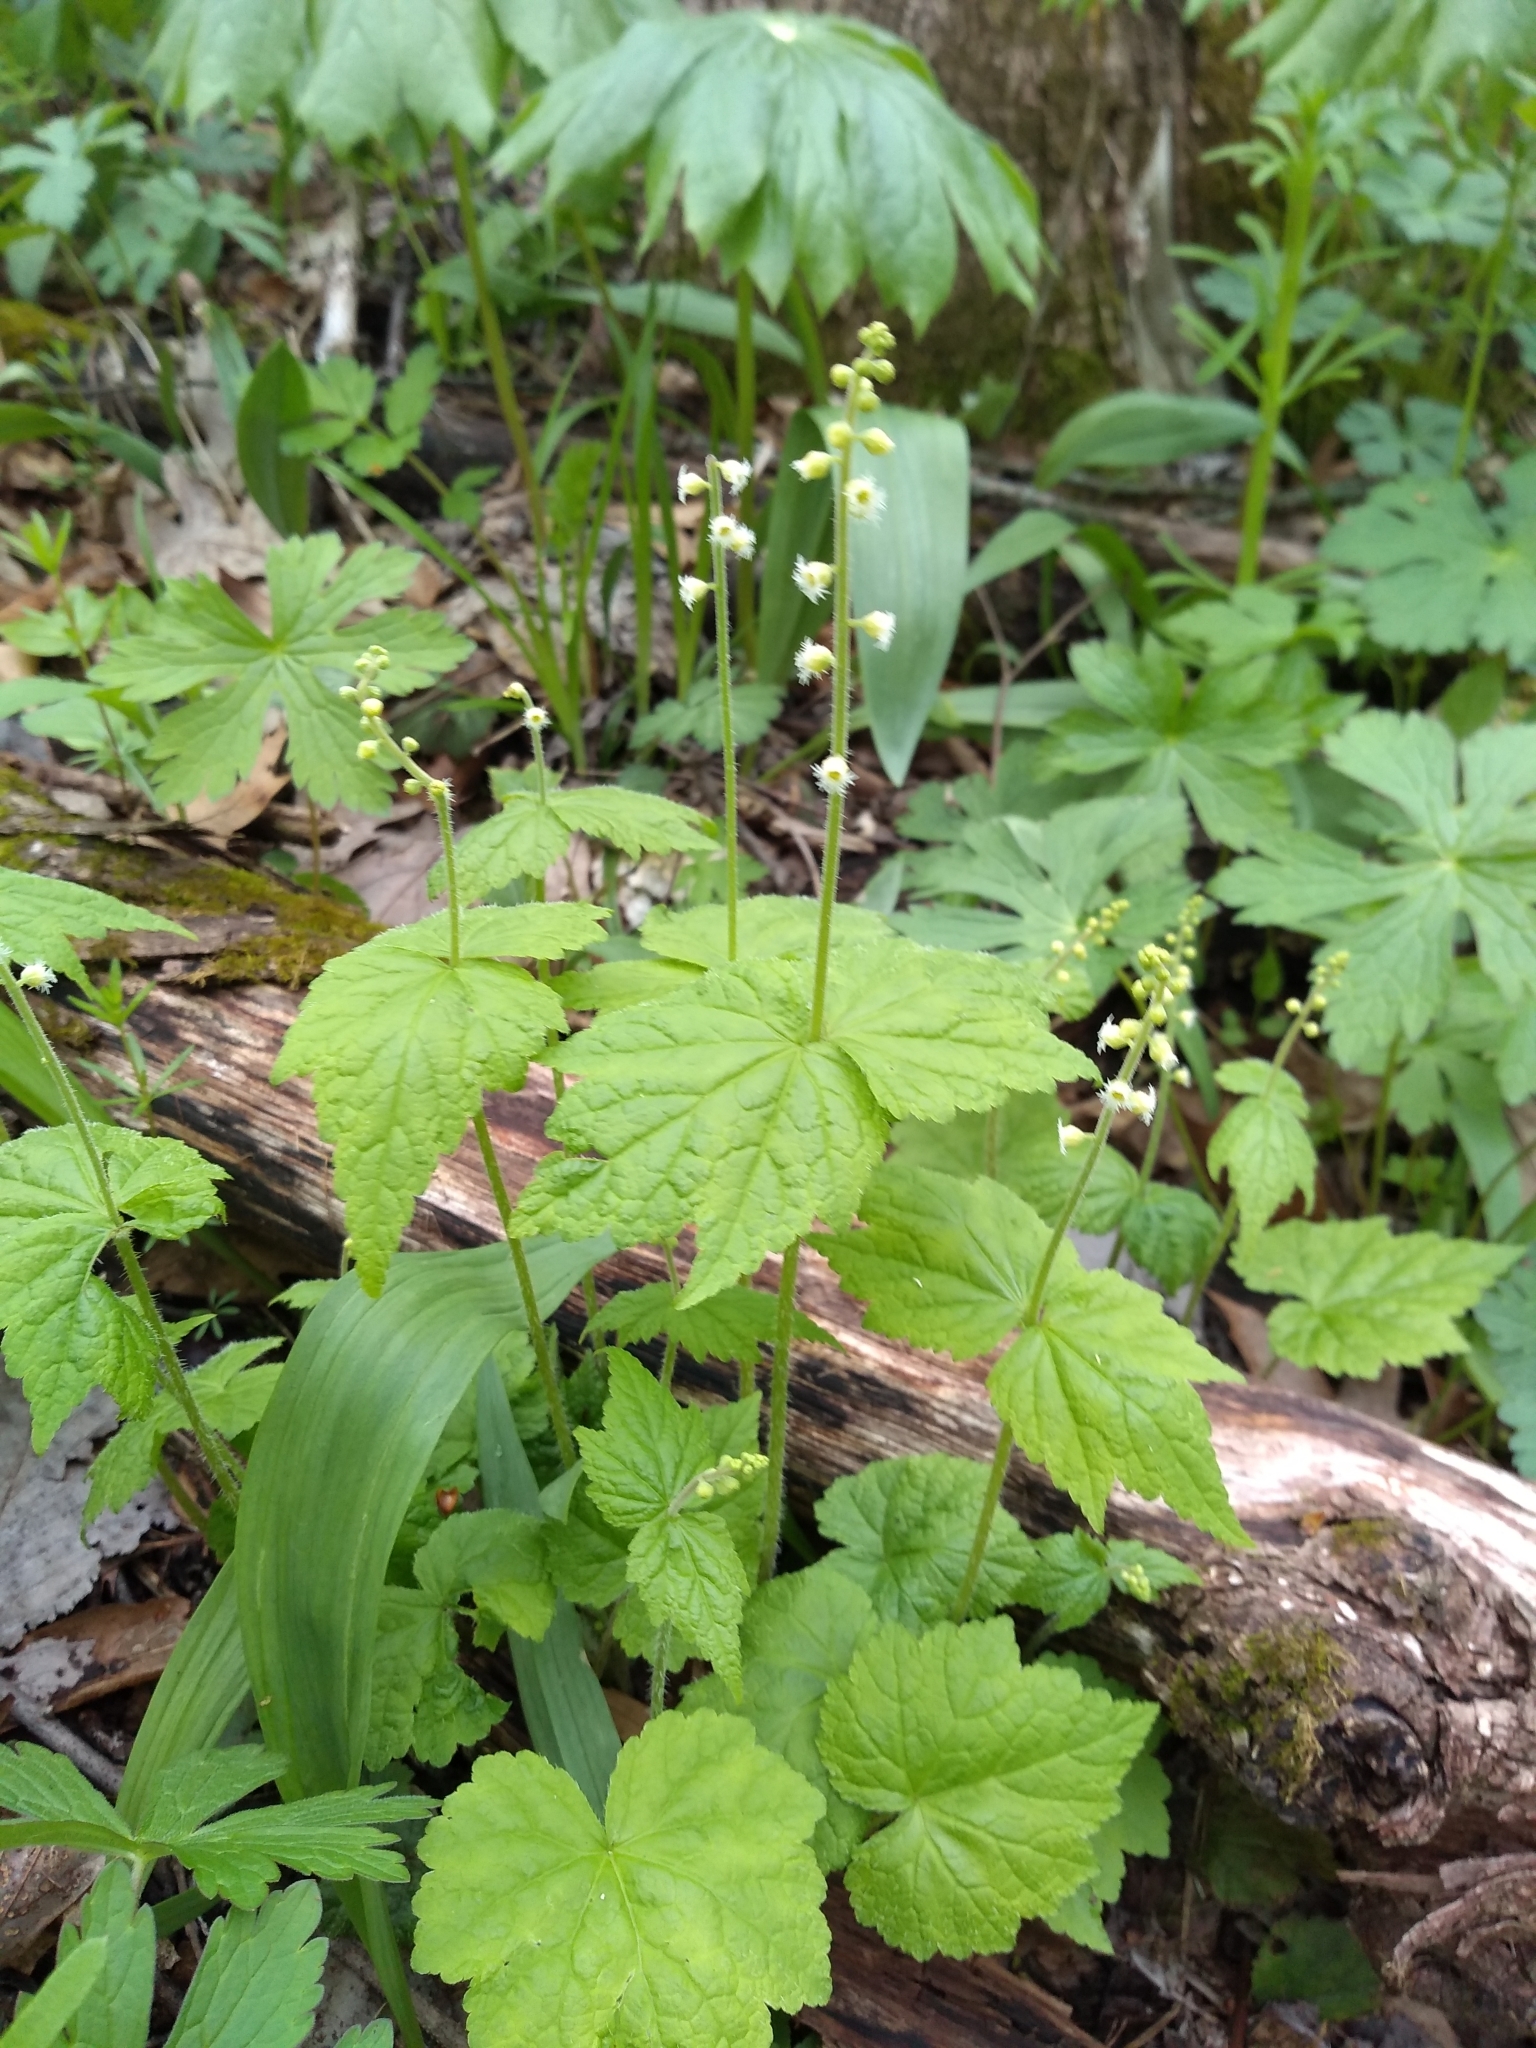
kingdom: Plantae
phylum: Tracheophyta
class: Magnoliopsida
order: Saxifragales
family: Saxifragaceae
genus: Mitella
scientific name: Mitella diphylla
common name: Coolwort
